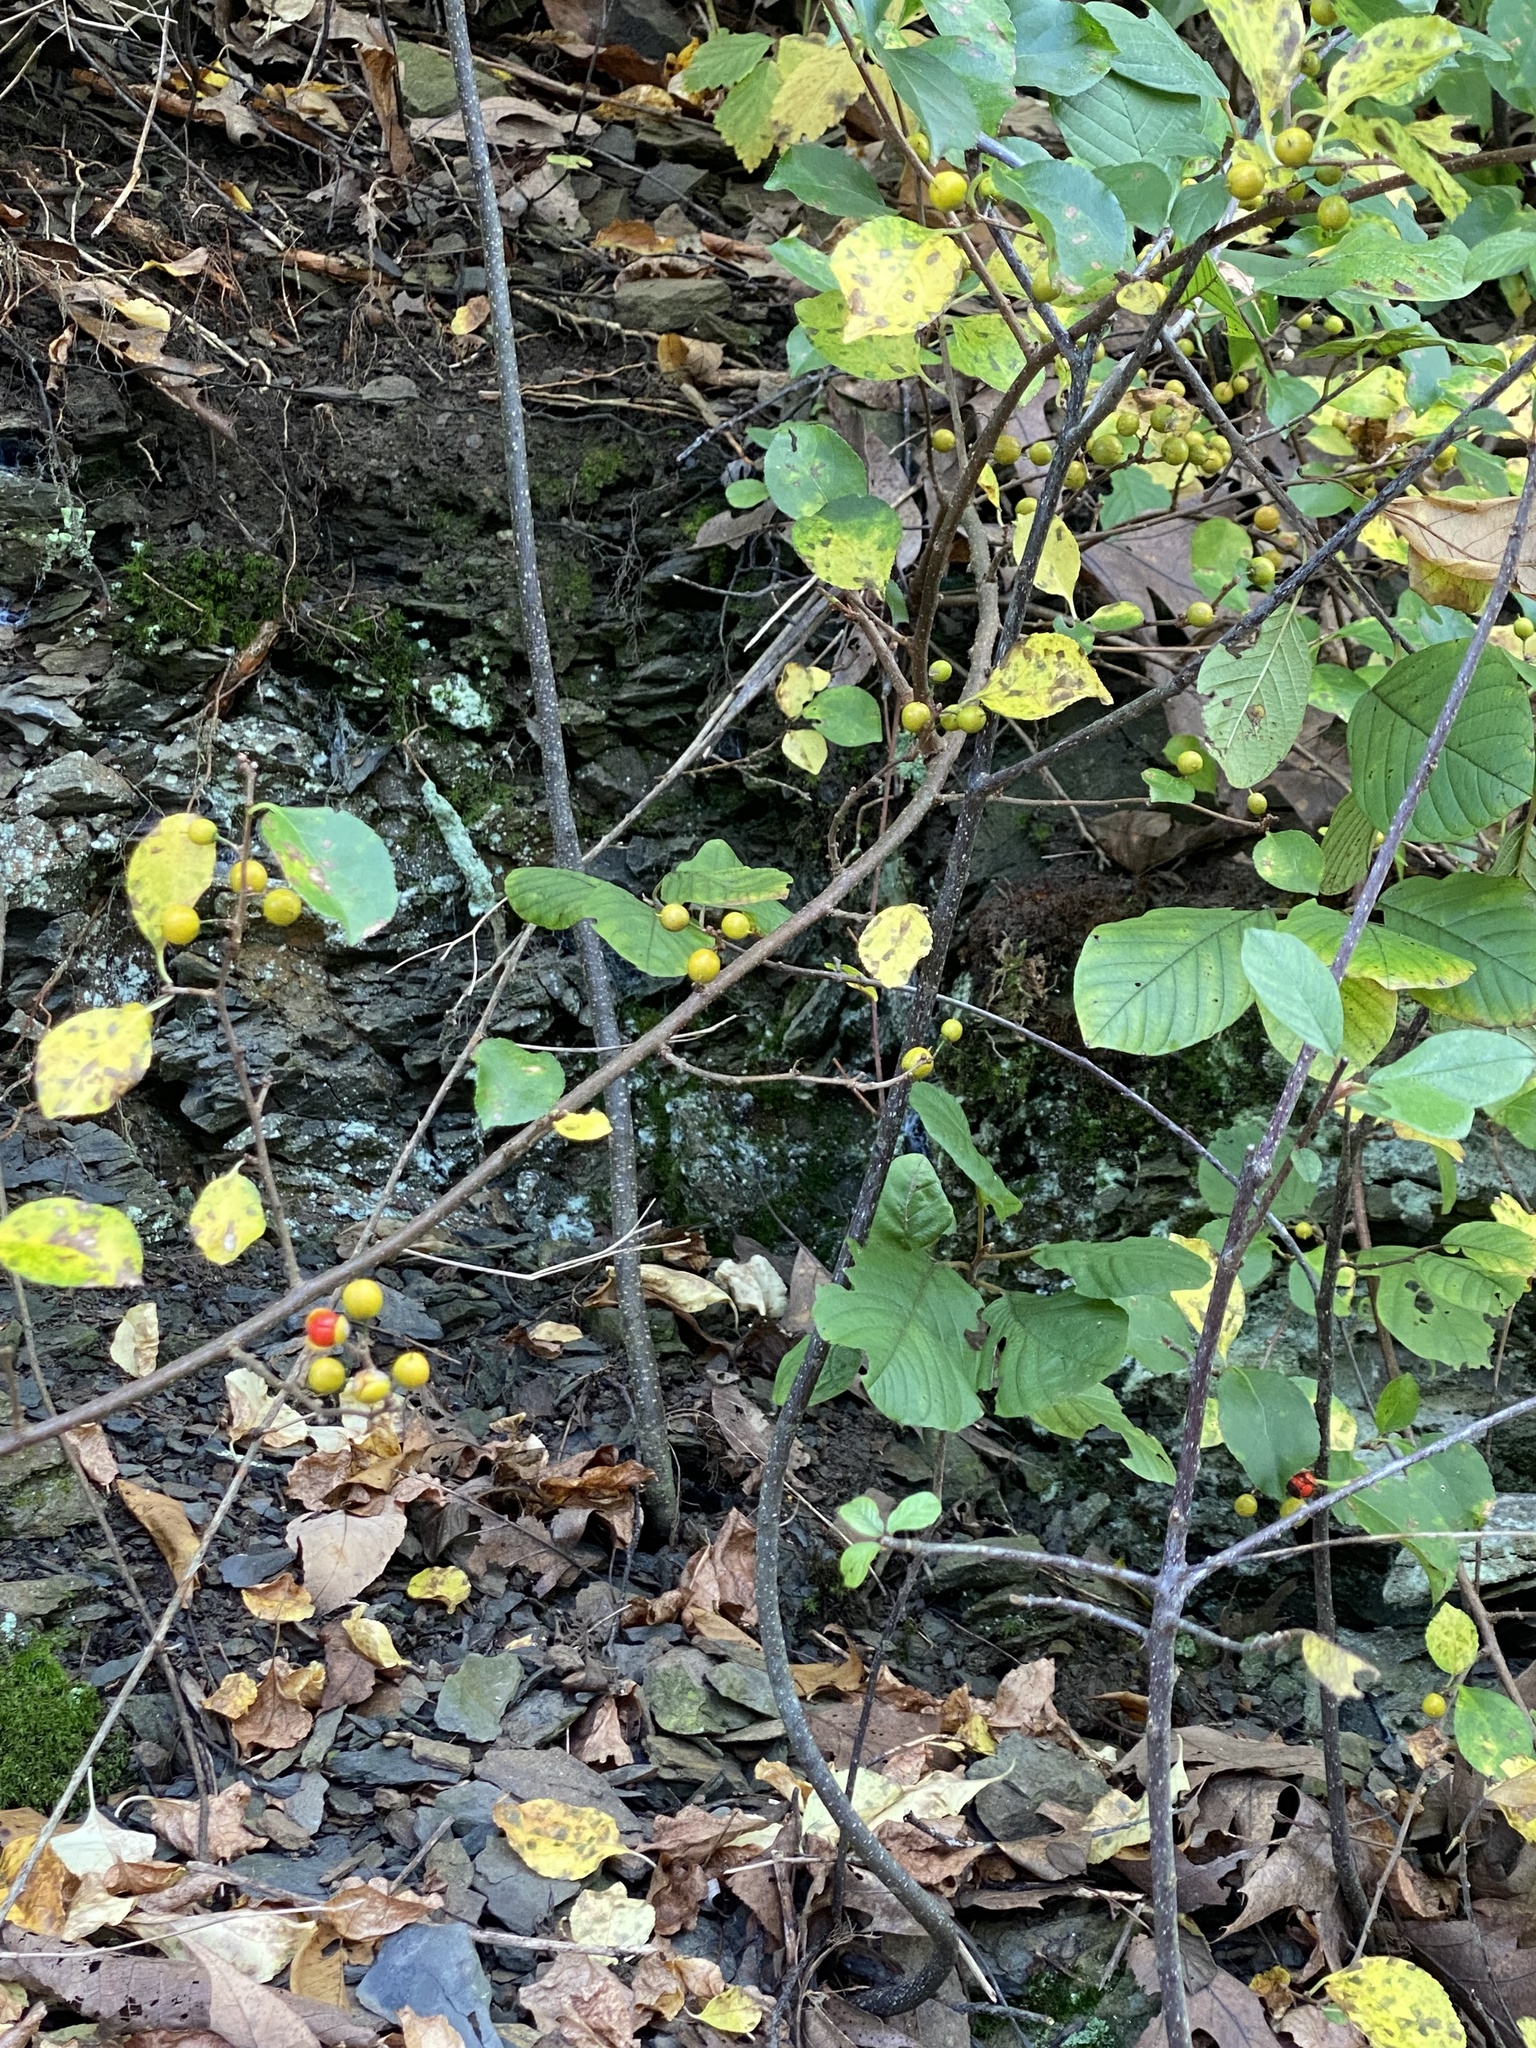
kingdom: Plantae
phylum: Tracheophyta
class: Magnoliopsida
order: Celastrales
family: Celastraceae
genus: Celastrus
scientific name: Celastrus orbiculatus
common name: Oriental bittersweet
